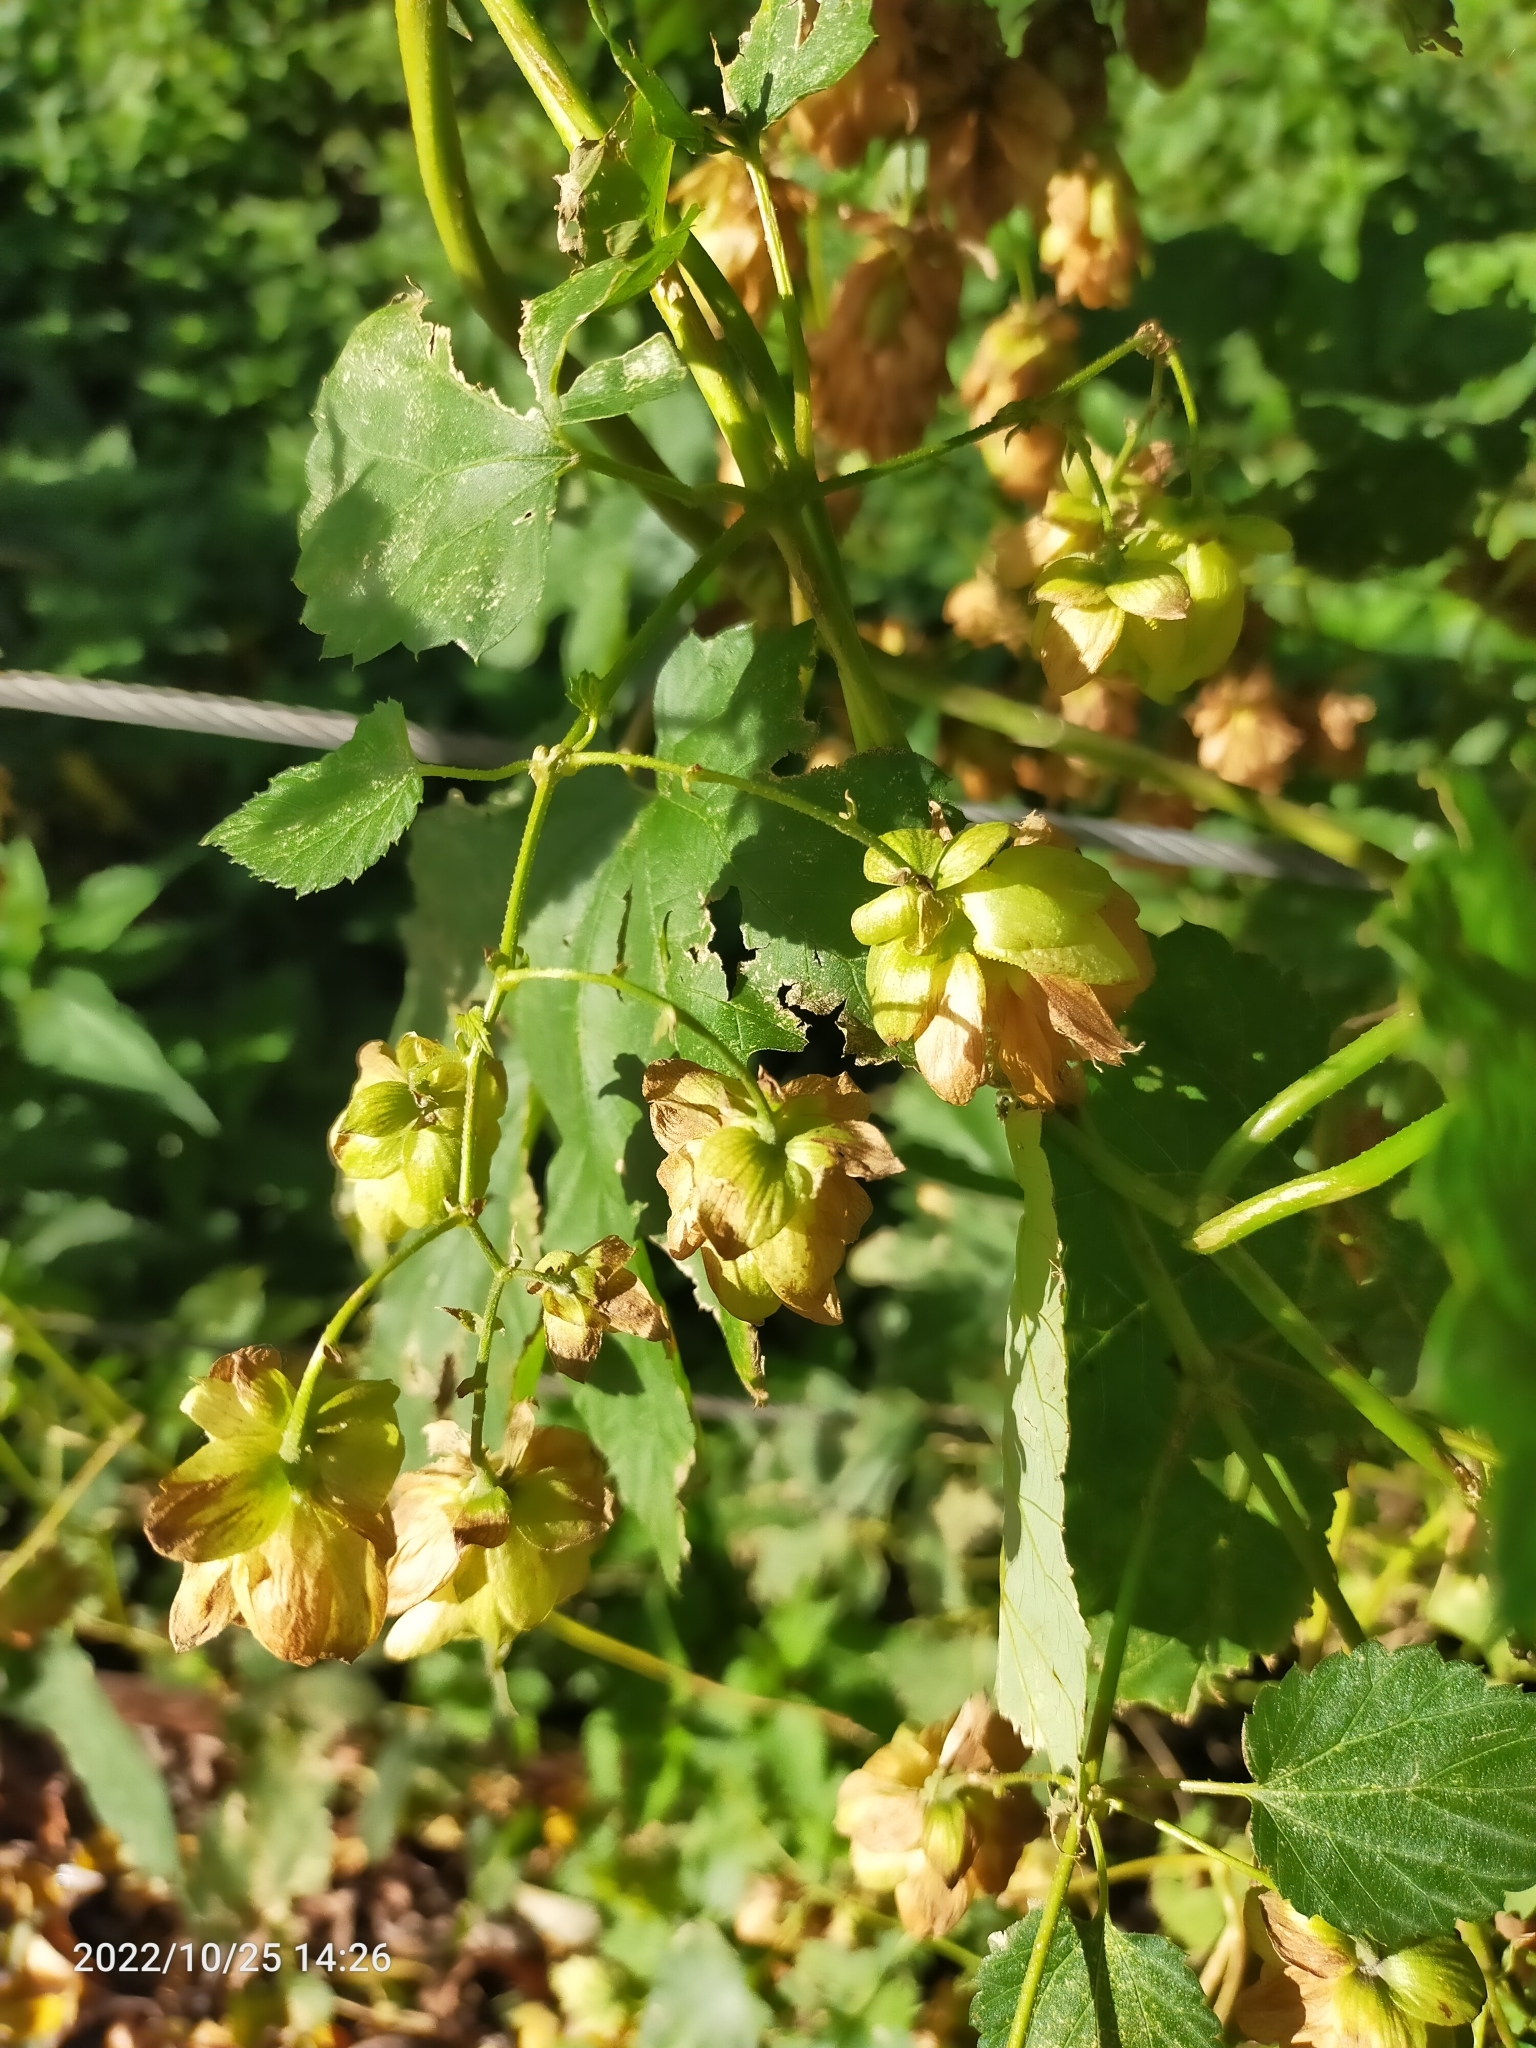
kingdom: Plantae
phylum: Tracheophyta
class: Magnoliopsida
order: Rosales
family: Cannabaceae
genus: Humulus
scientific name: Humulus lupulus
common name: Hop
